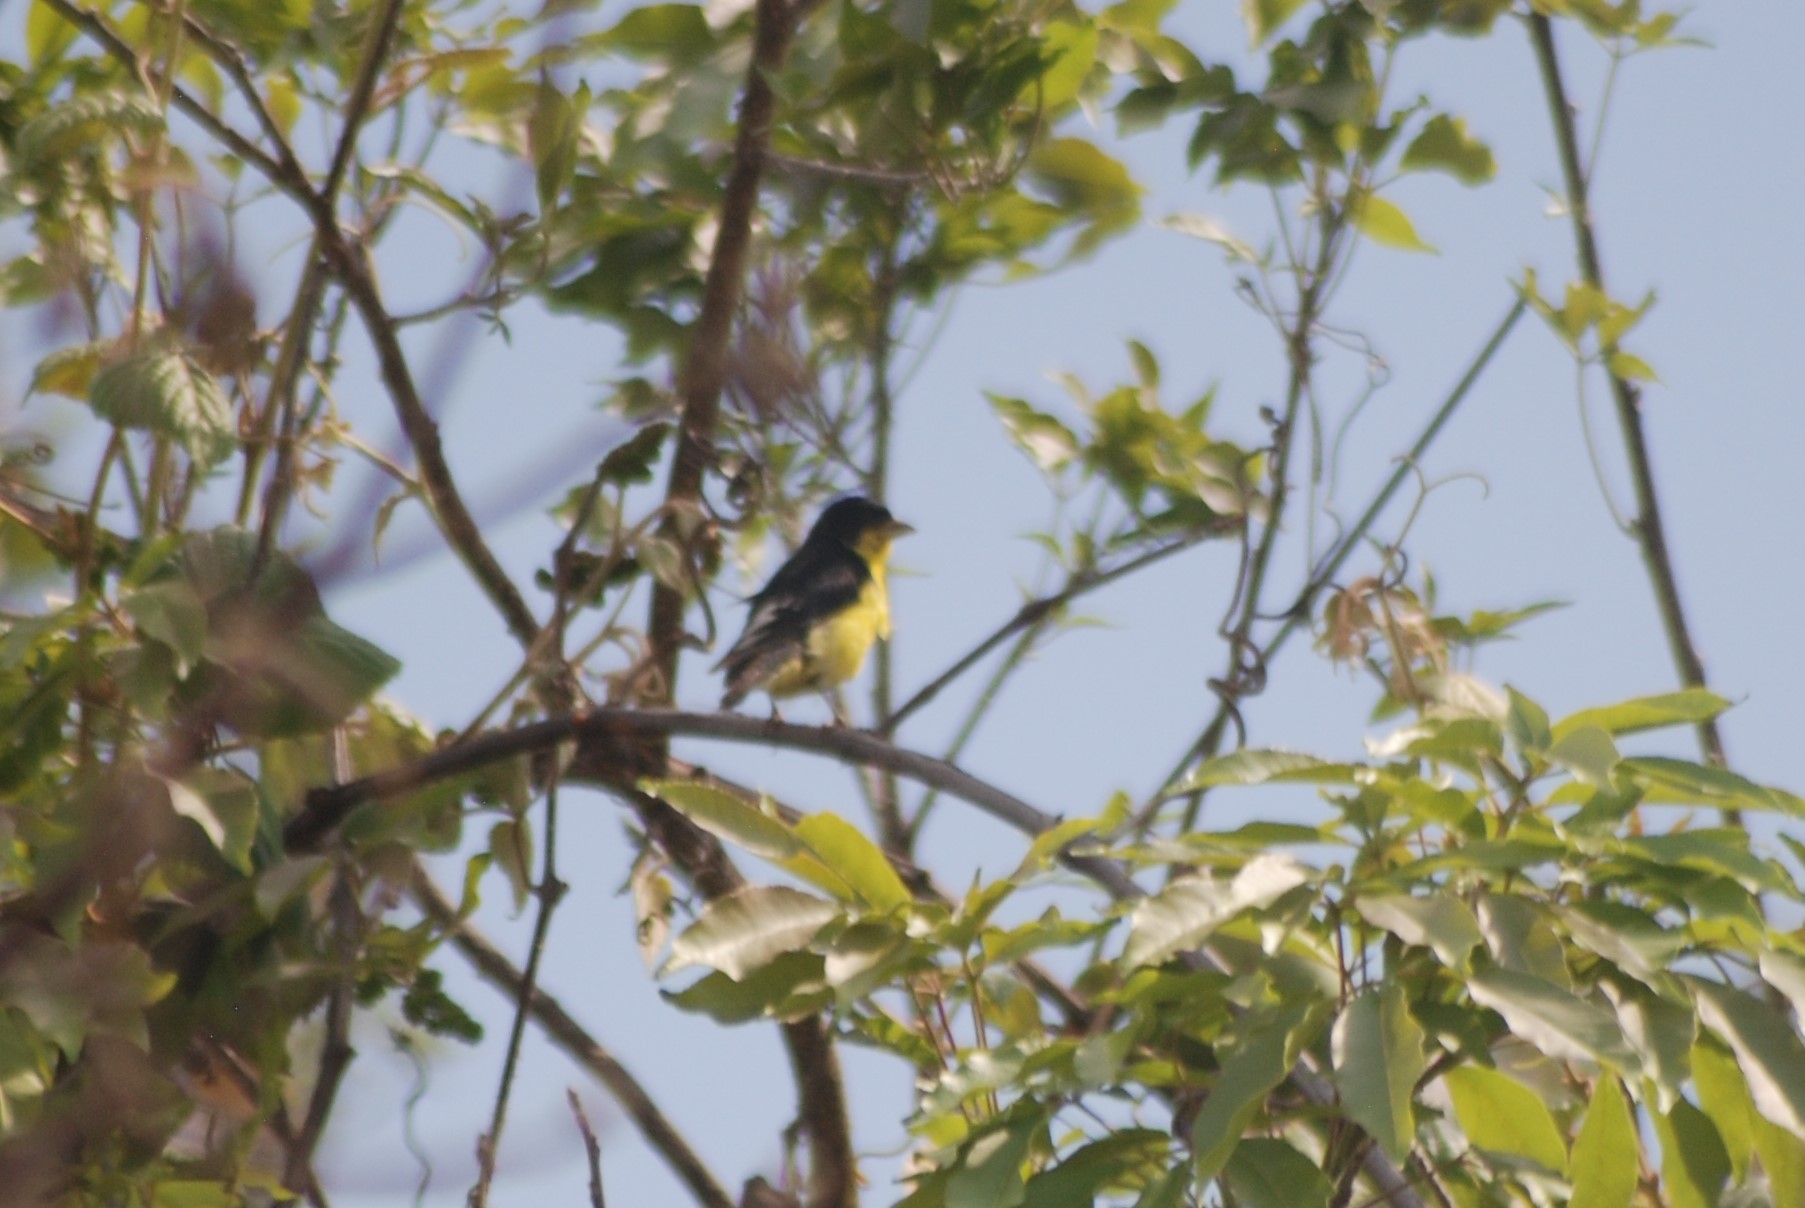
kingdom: Animalia
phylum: Chordata
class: Aves
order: Passeriformes
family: Fringillidae
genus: Spinus
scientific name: Spinus psaltria
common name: Lesser goldfinch
